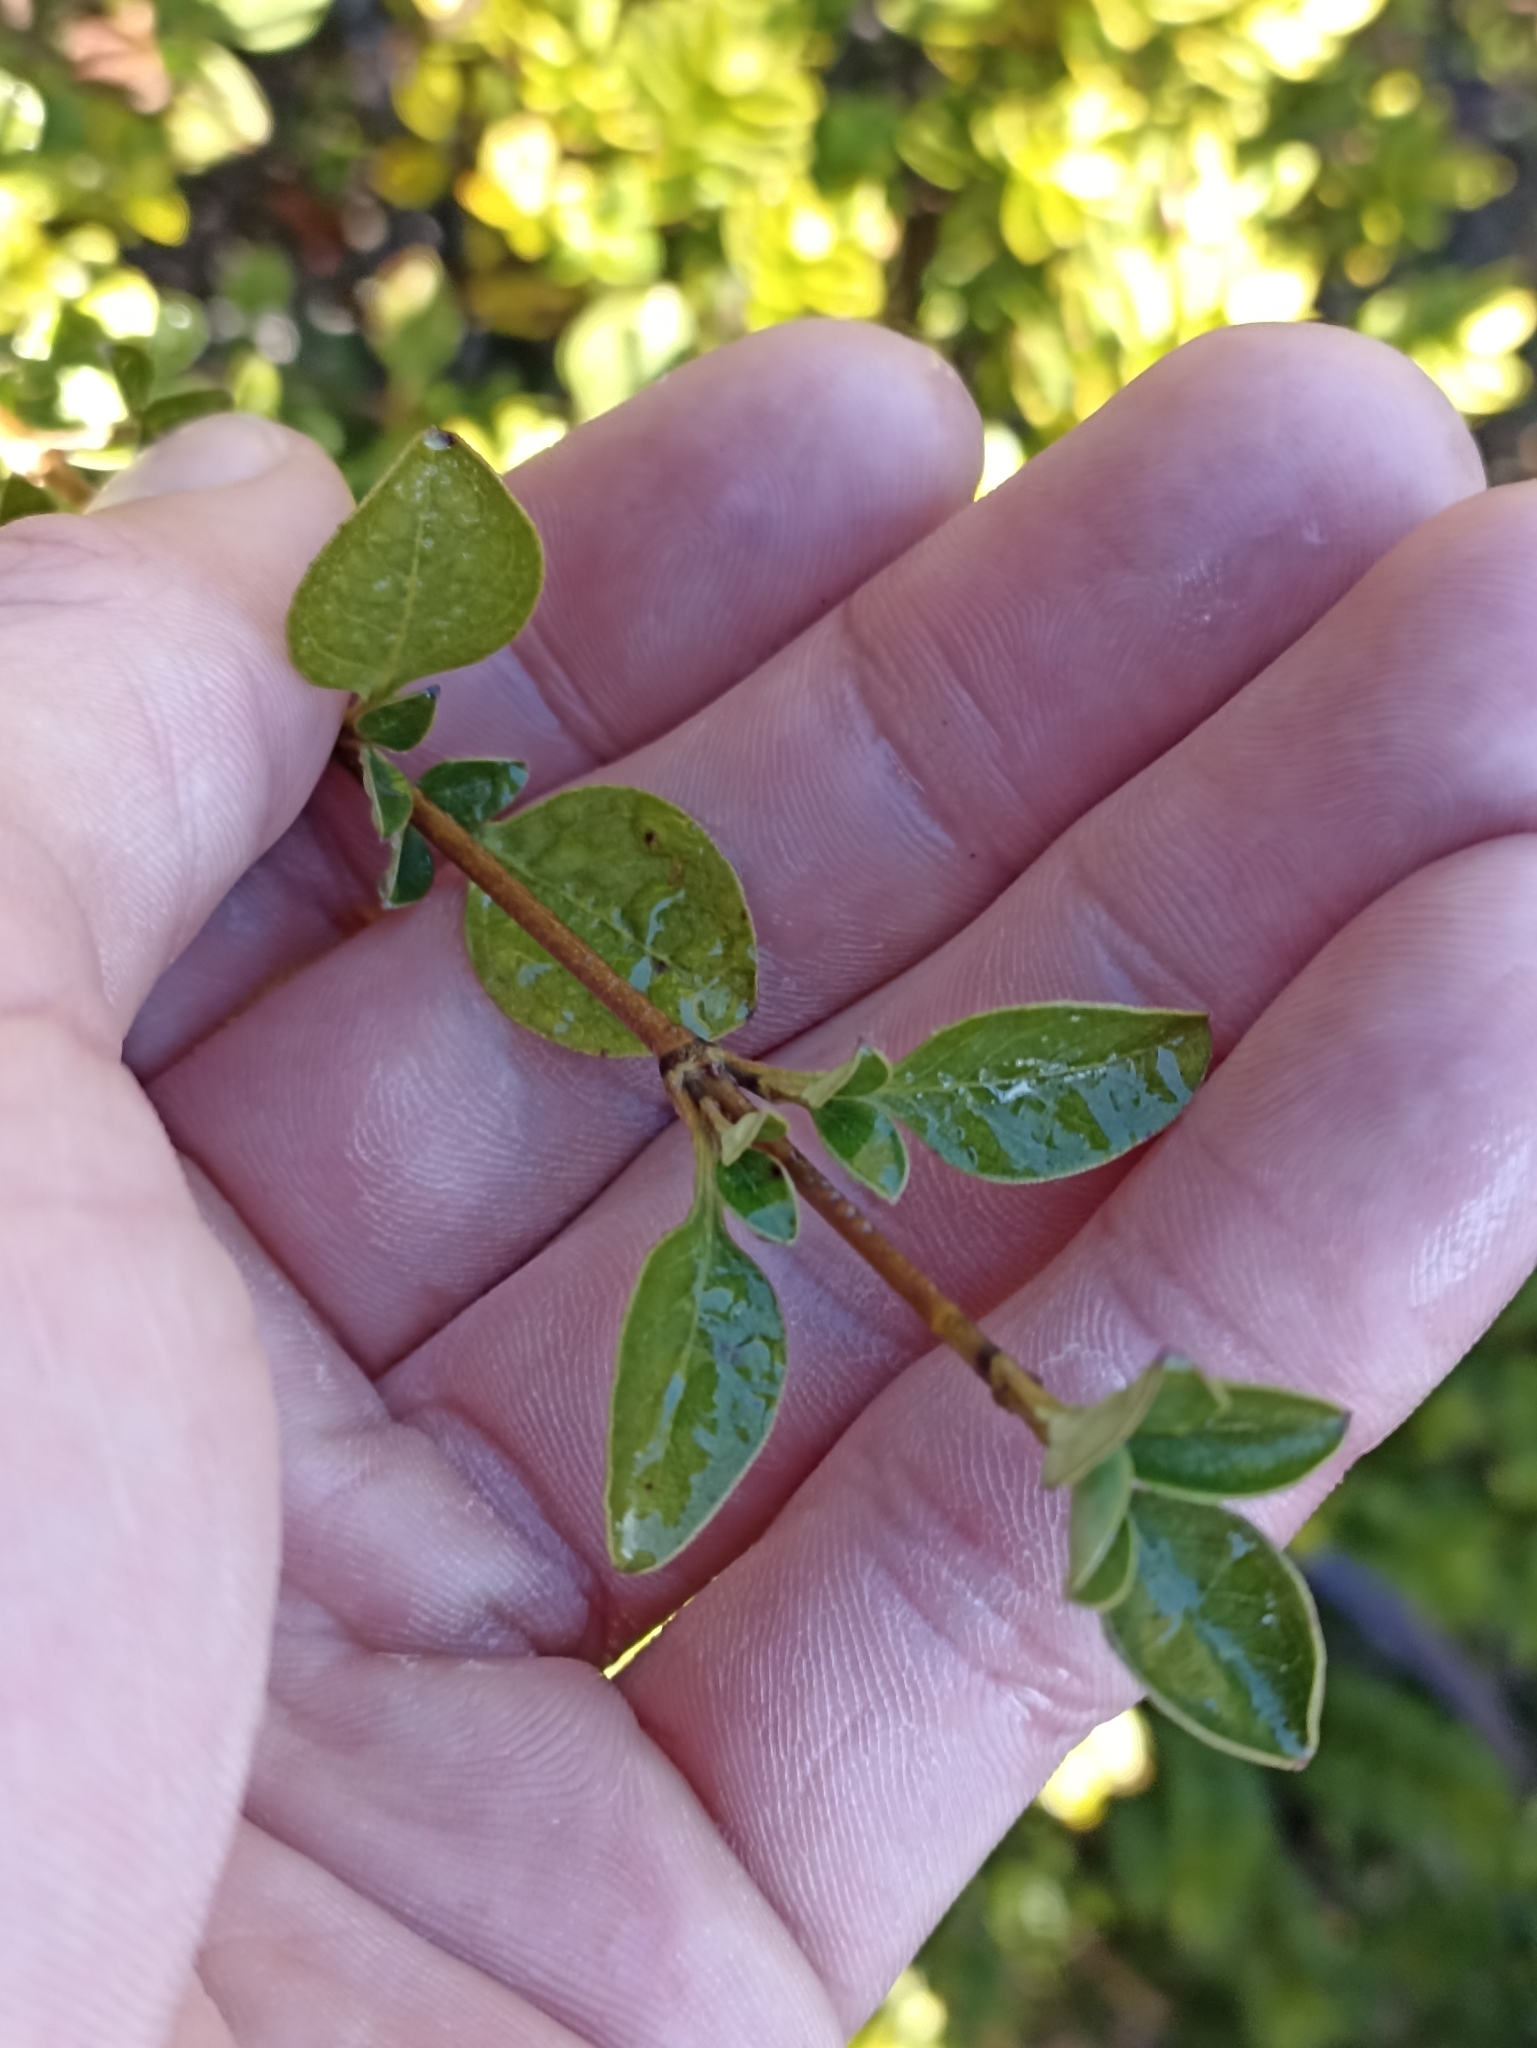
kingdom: Plantae
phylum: Tracheophyta
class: Magnoliopsida
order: Gentianales
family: Rubiaceae
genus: Coprosma
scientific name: Coprosma foetidissima
